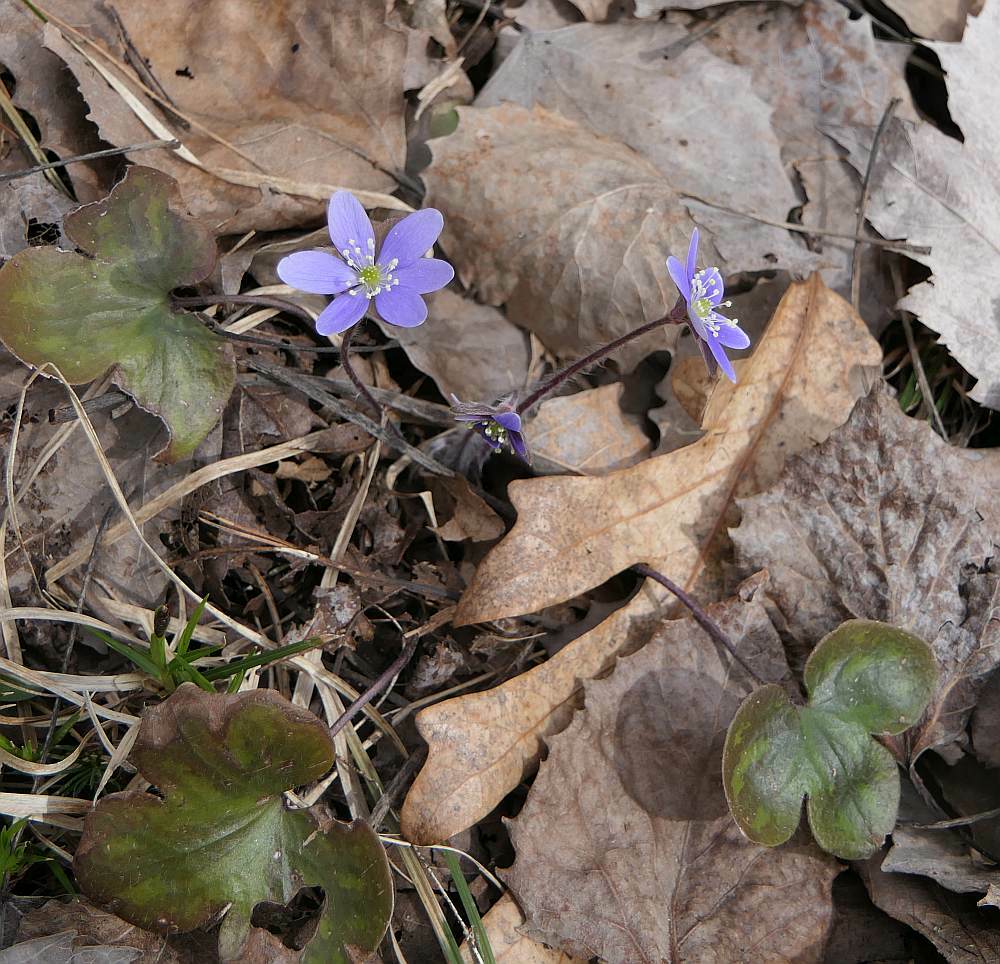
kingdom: Plantae
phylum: Tracheophyta
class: Magnoliopsida
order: Ranunculales
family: Ranunculaceae
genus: Hepatica
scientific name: Hepatica americana
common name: American hepatica
